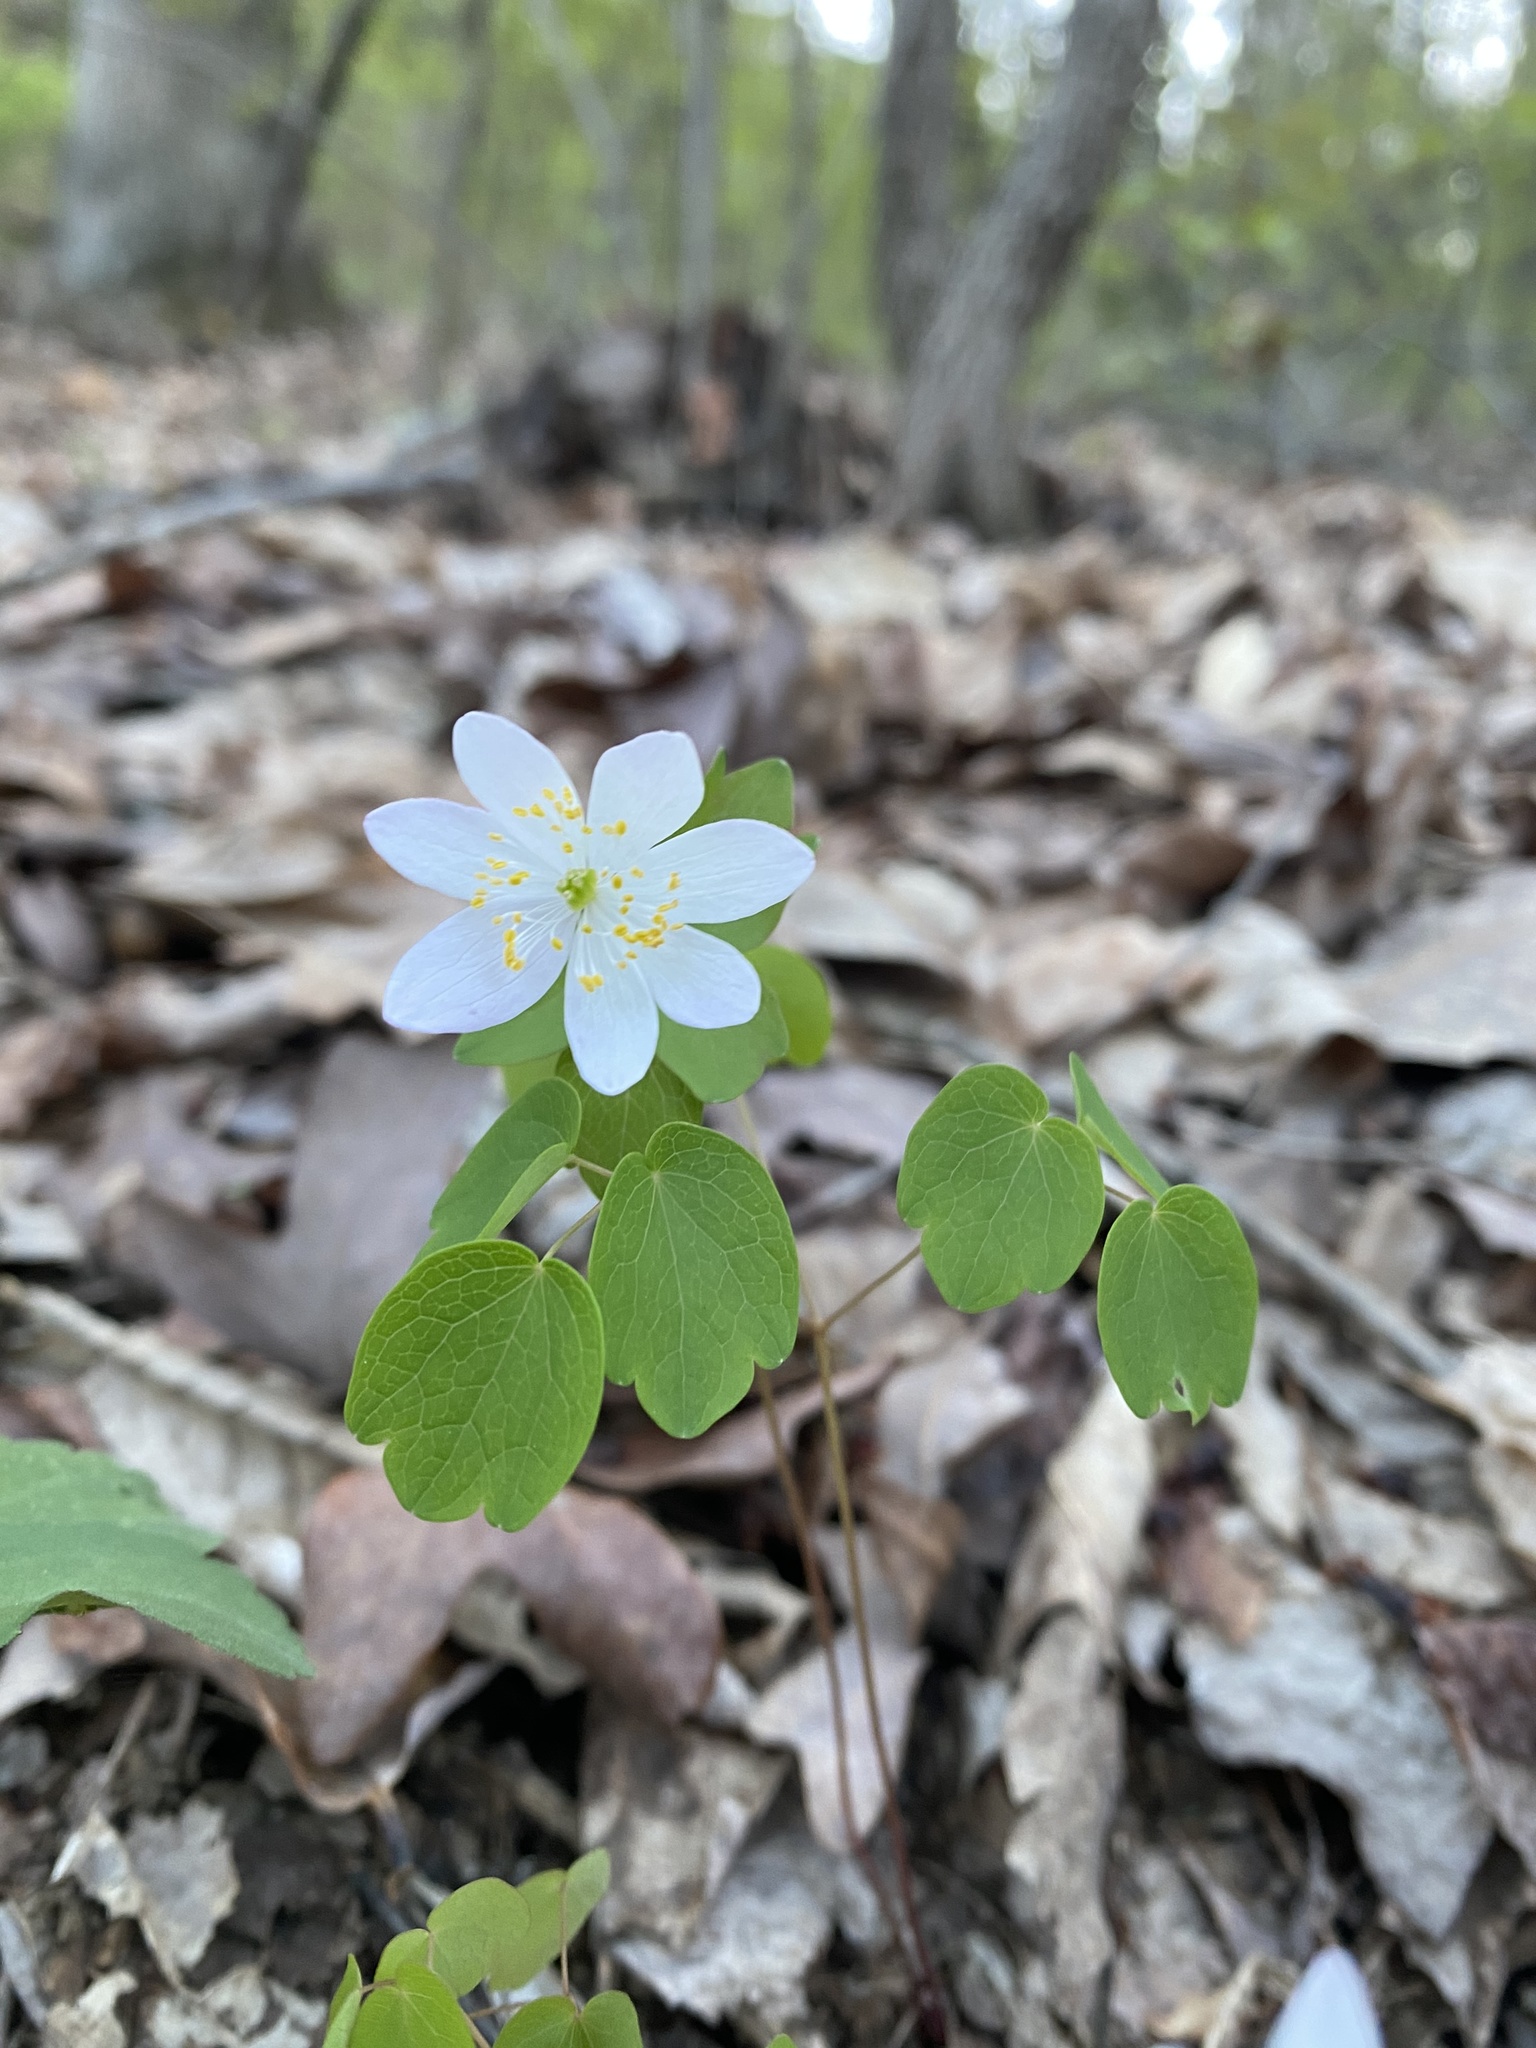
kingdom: Plantae
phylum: Tracheophyta
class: Magnoliopsida
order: Ranunculales
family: Ranunculaceae
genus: Thalictrum
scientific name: Thalictrum thalictroides
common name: Rue-anemone
